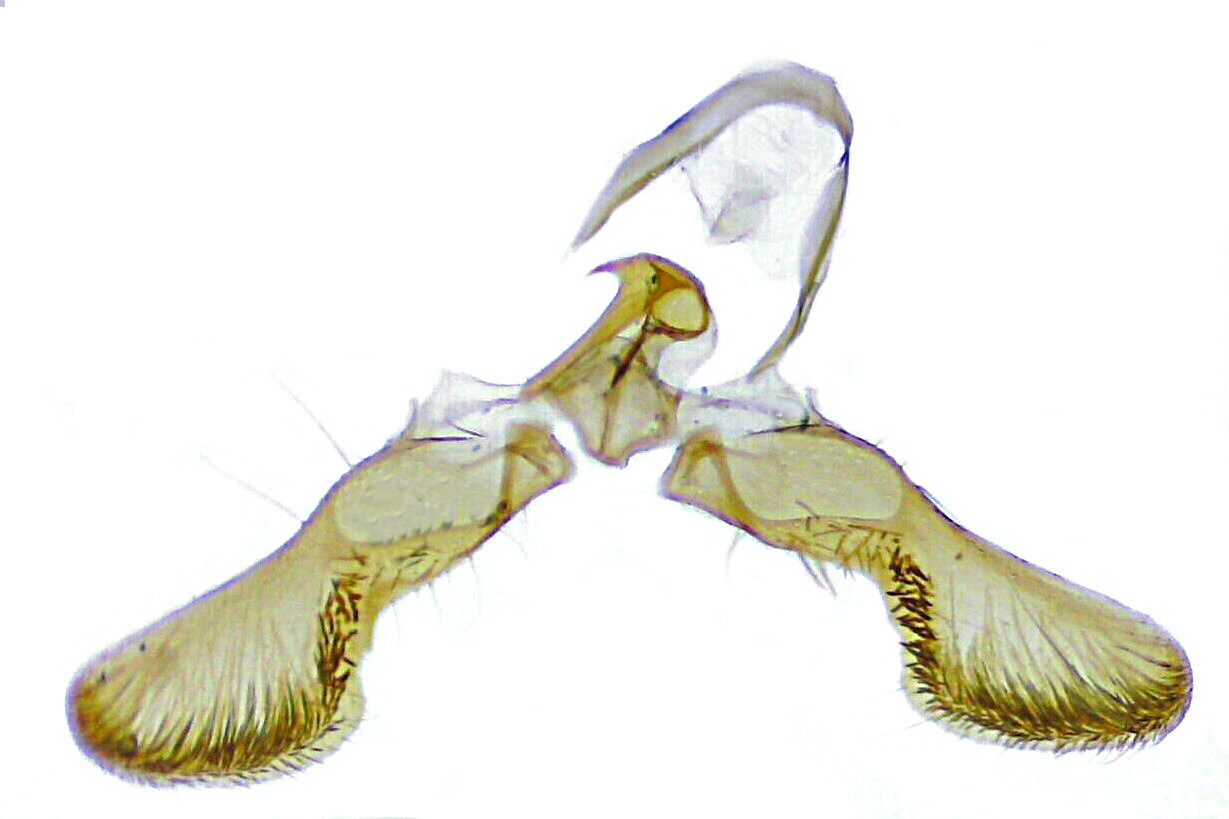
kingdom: Animalia
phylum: Arthropoda
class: Insecta
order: Lepidoptera
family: Tortricidae
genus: Cydia
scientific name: Cydia caryana
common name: Hickory shuckworm moth
